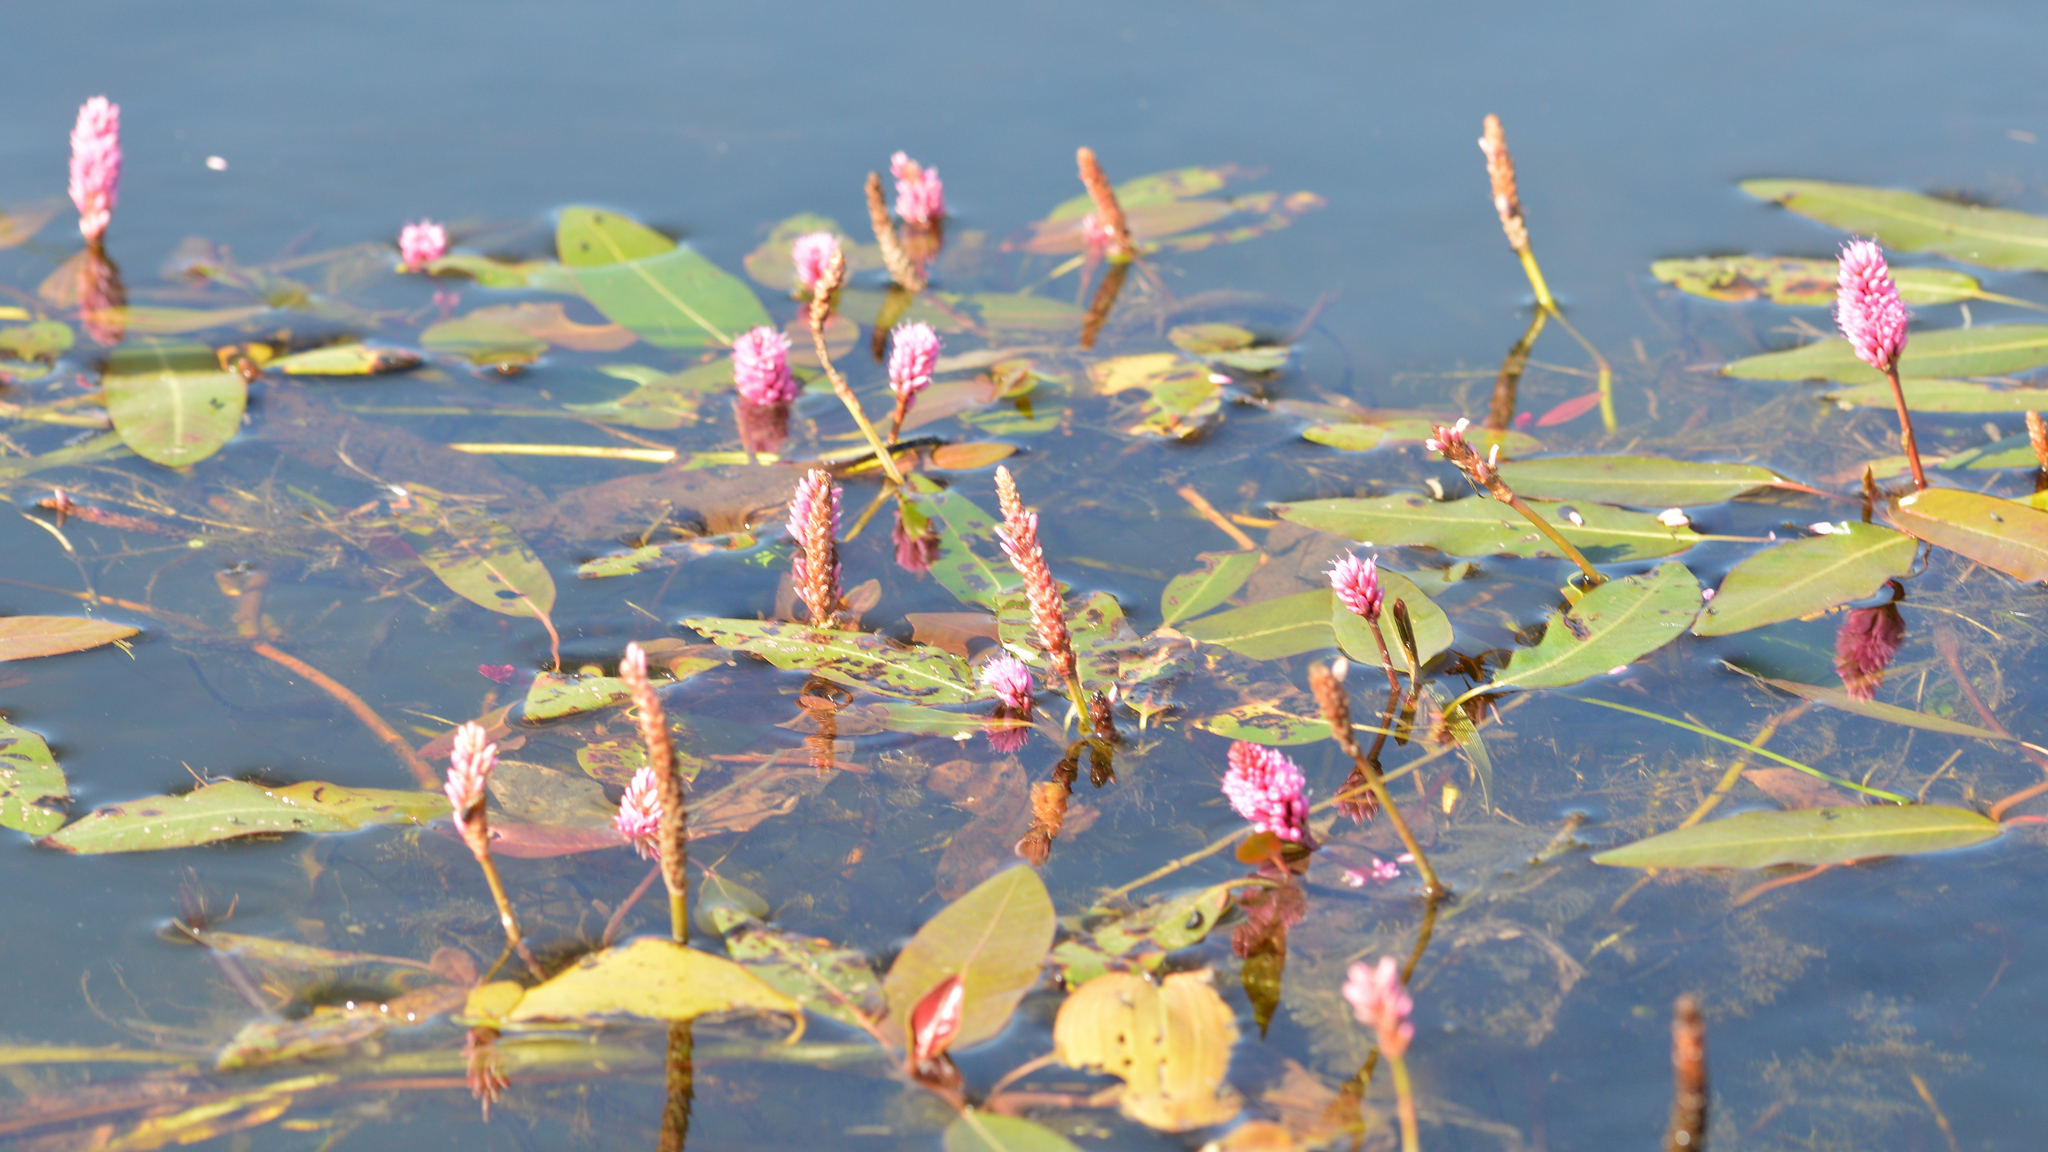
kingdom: Plantae
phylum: Tracheophyta
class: Magnoliopsida
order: Caryophyllales
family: Polygonaceae
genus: Persicaria
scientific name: Persicaria amphibia
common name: Amphibious bistort
